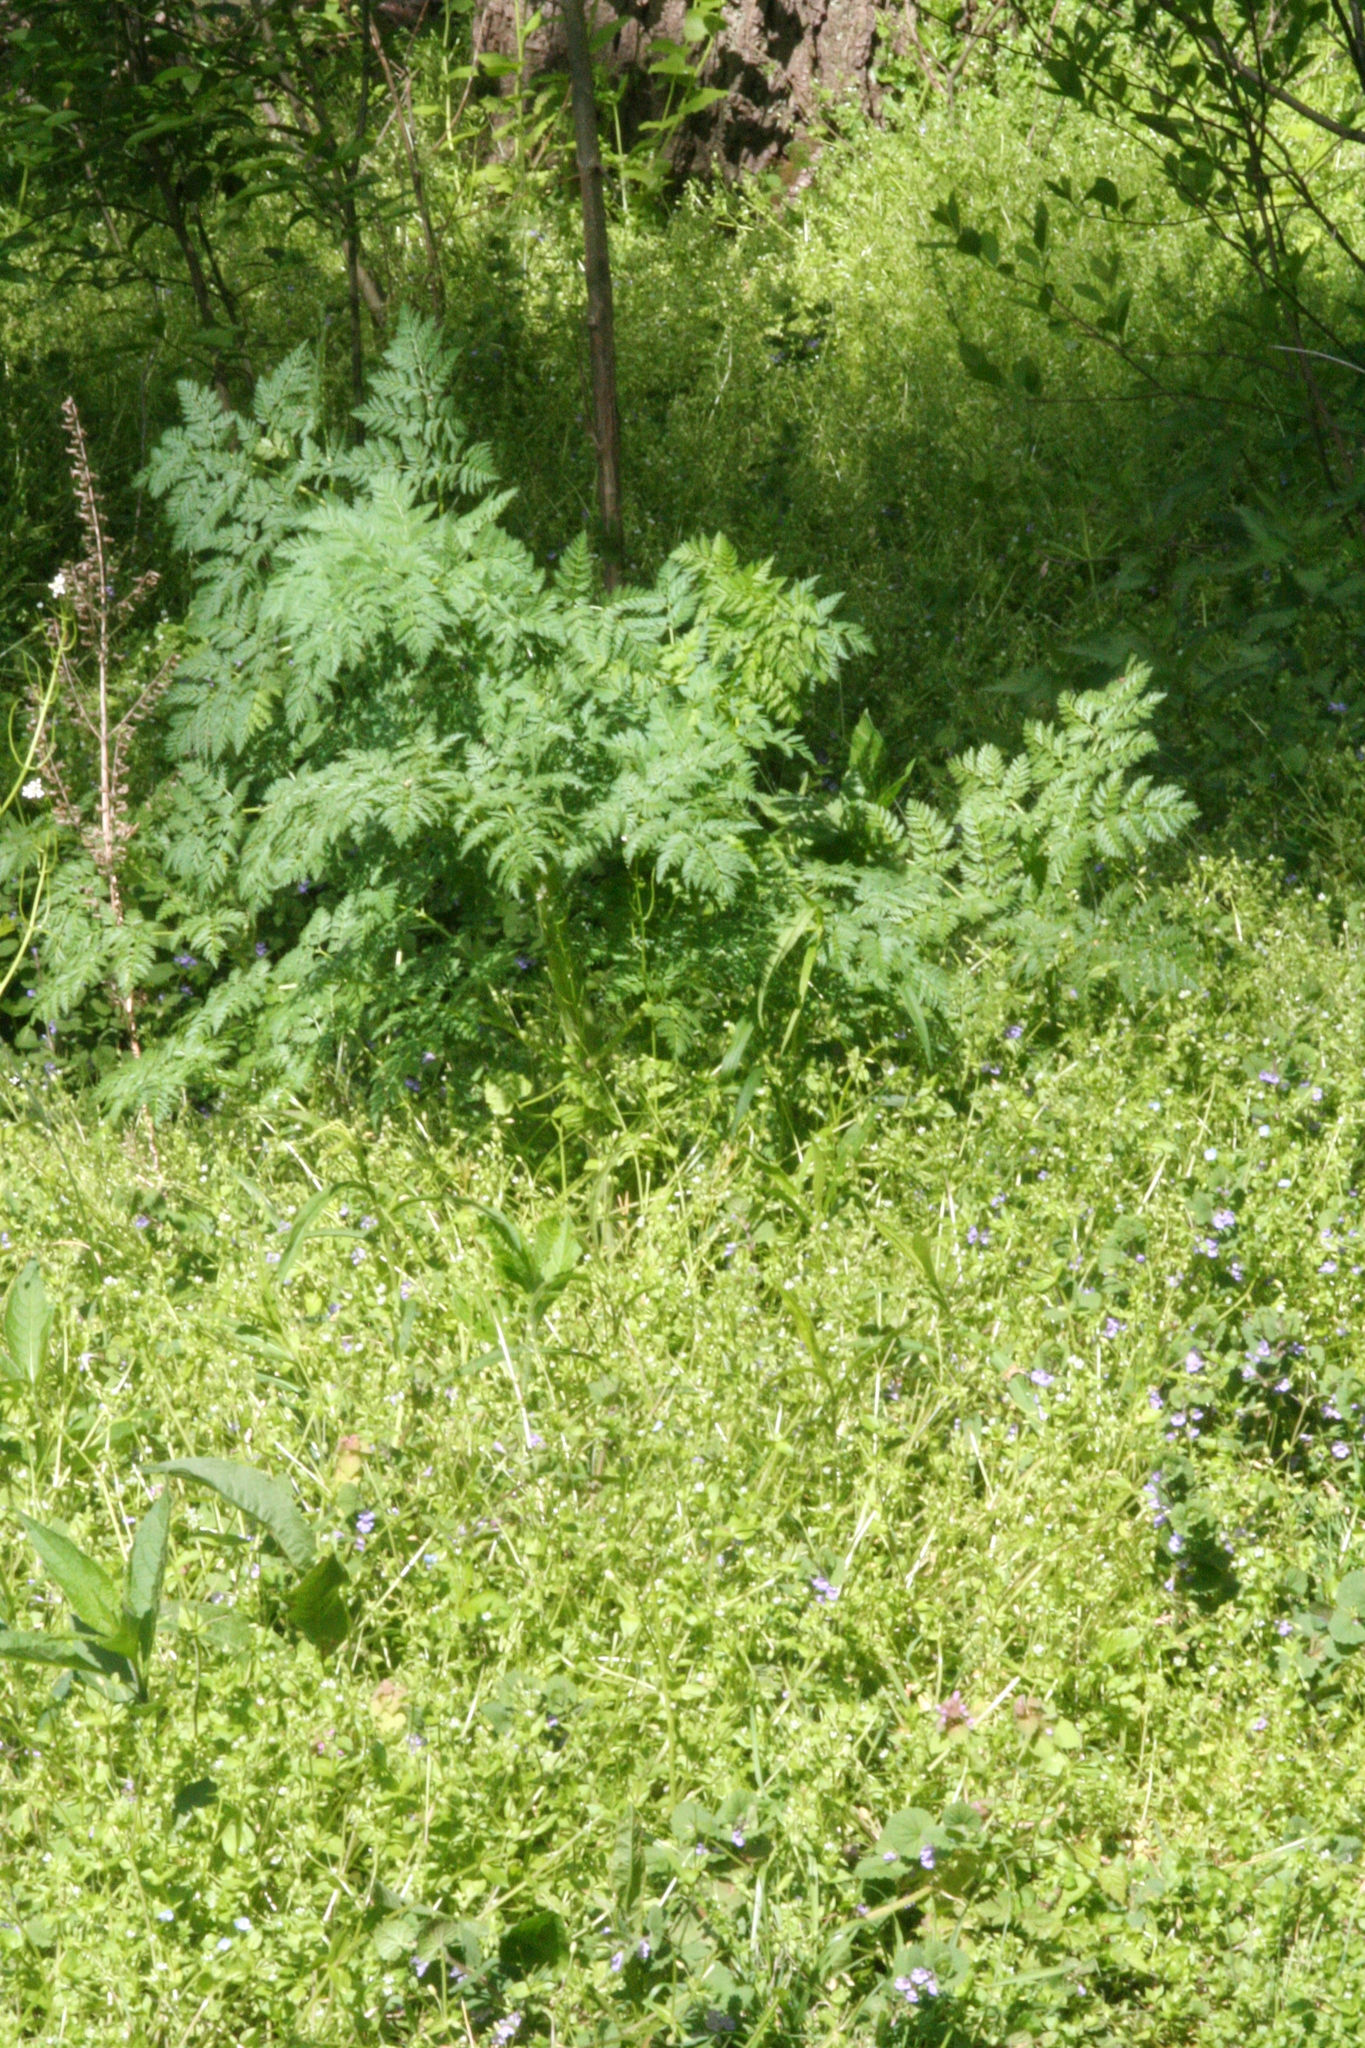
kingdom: Plantae
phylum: Tracheophyta
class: Magnoliopsida
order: Apiales
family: Apiaceae
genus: Conium
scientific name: Conium maculatum
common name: Hemlock
